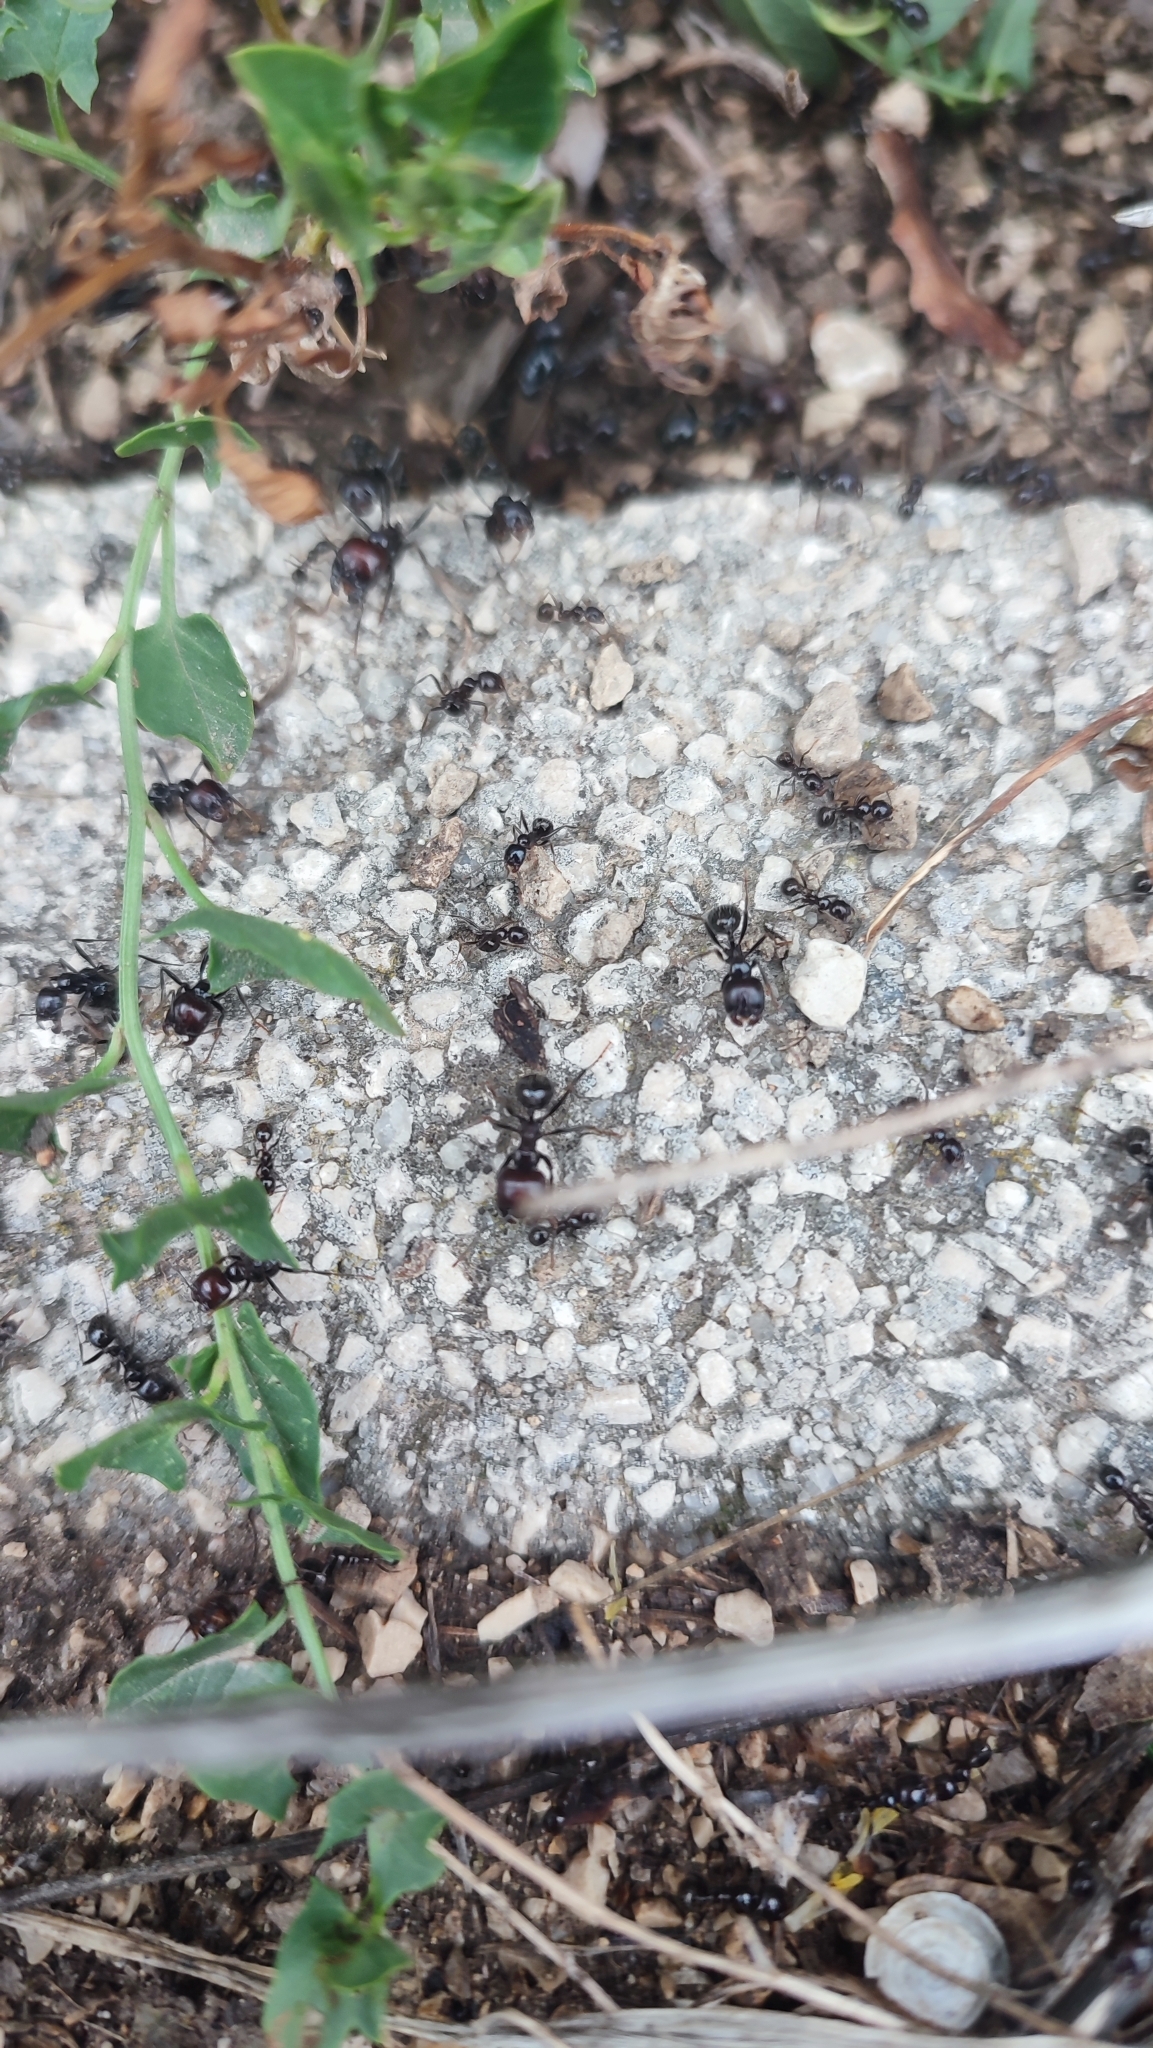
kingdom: Animalia
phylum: Arthropoda
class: Insecta
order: Hymenoptera
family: Formicidae
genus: Messor
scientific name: Messor barbarus
